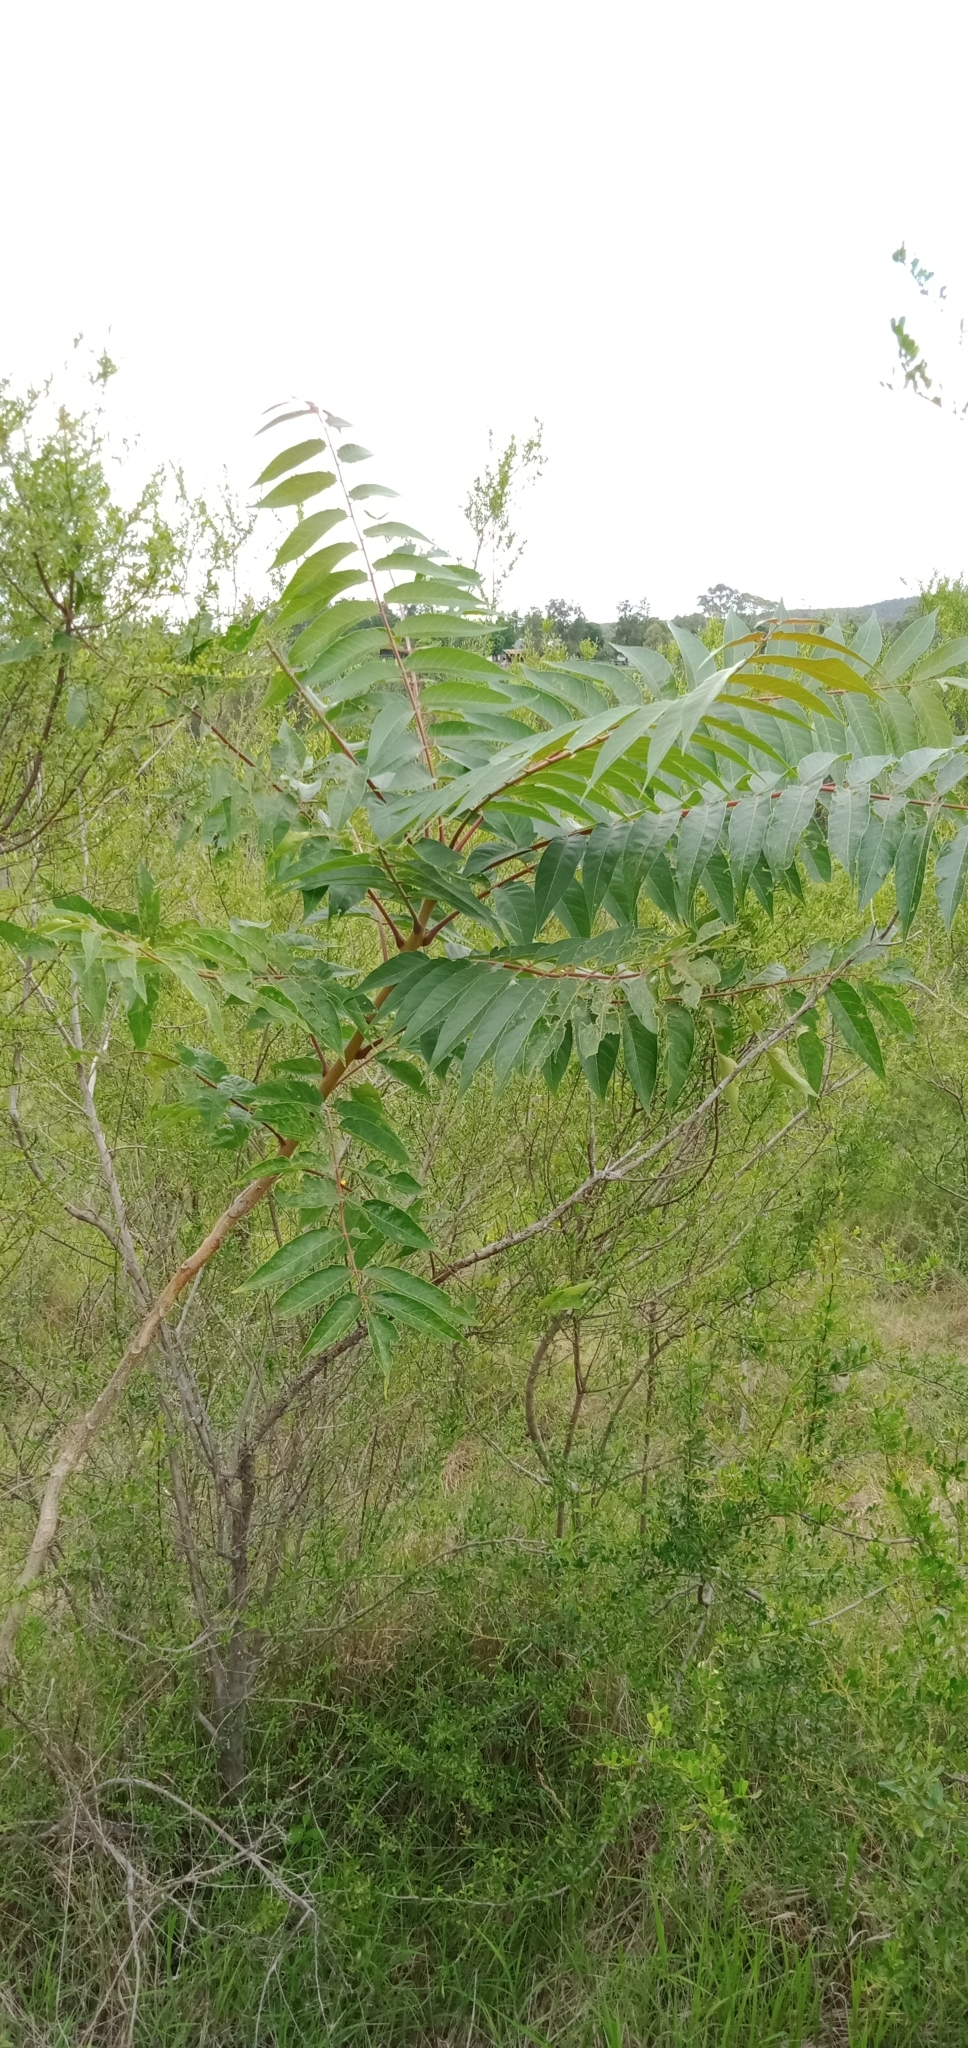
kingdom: Plantae
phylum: Tracheophyta
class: Magnoliopsida
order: Sapindales
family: Simaroubaceae
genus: Ailanthus
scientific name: Ailanthus altissima
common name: Tree-of-heaven
